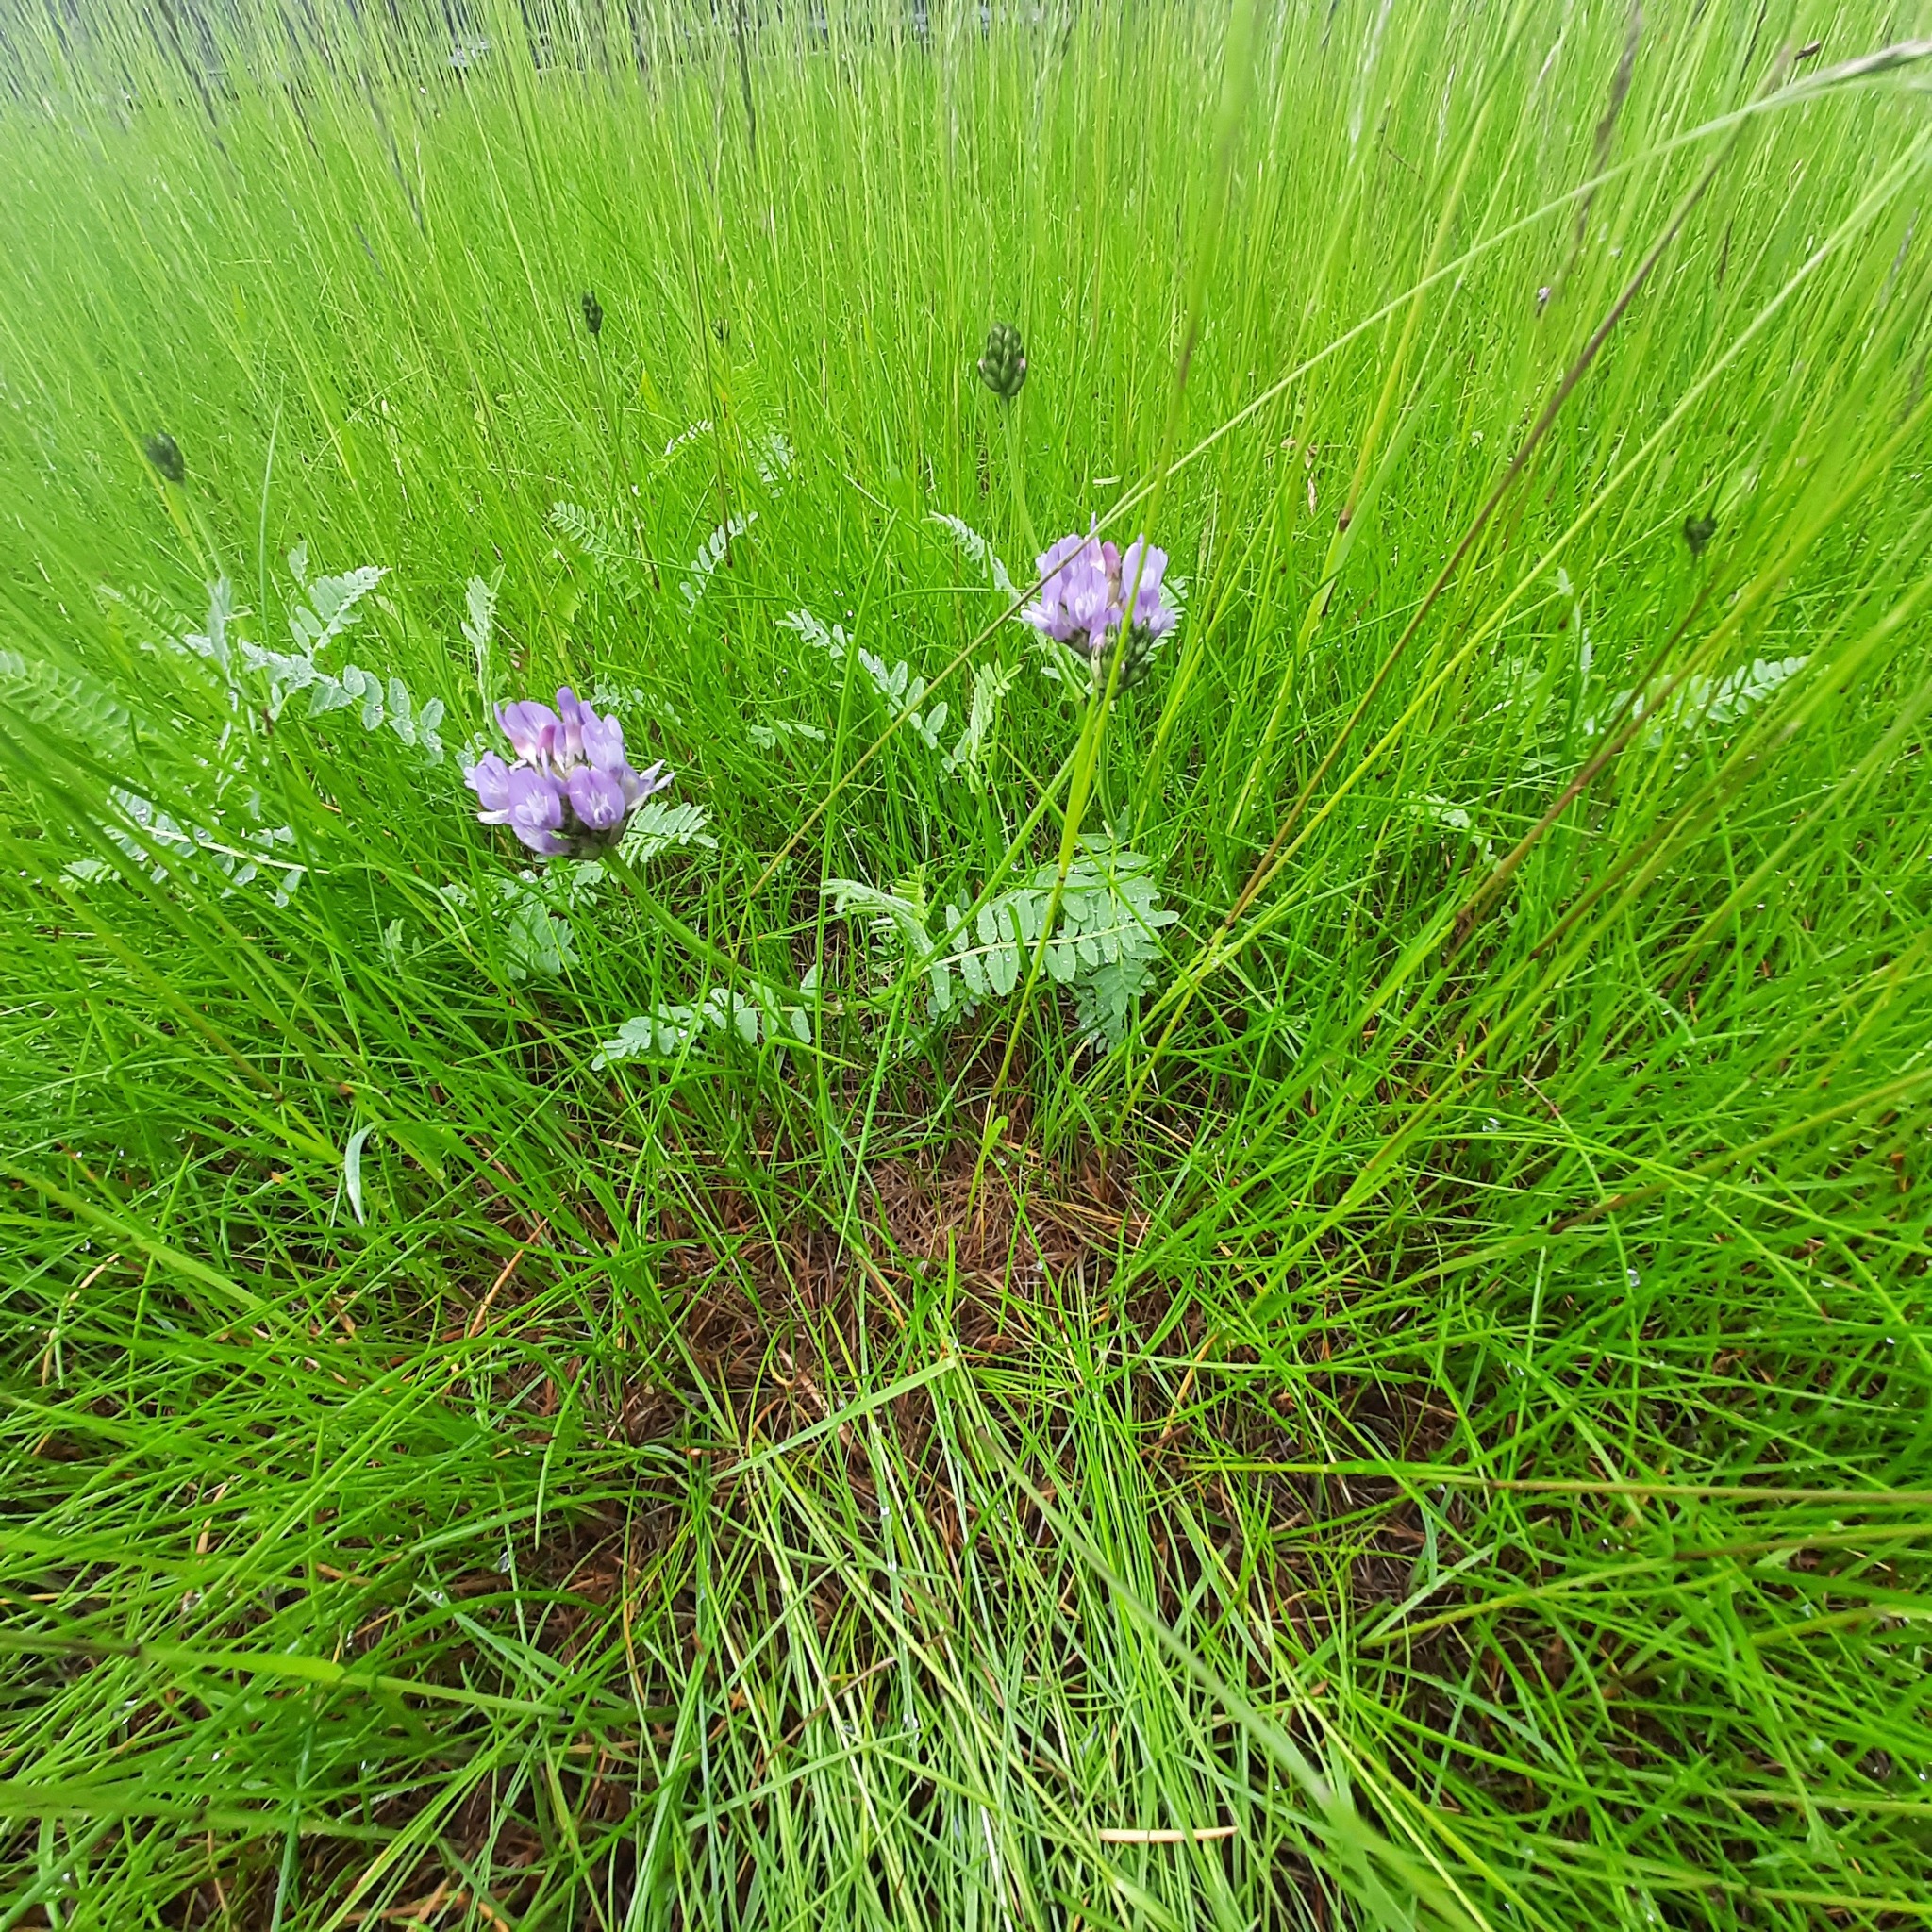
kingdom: Plantae
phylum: Tracheophyta
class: Magnoliopsida
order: Fabales
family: Fabaceae
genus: Astragalus
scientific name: Astragalus danicus
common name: Purple milk-vetch
